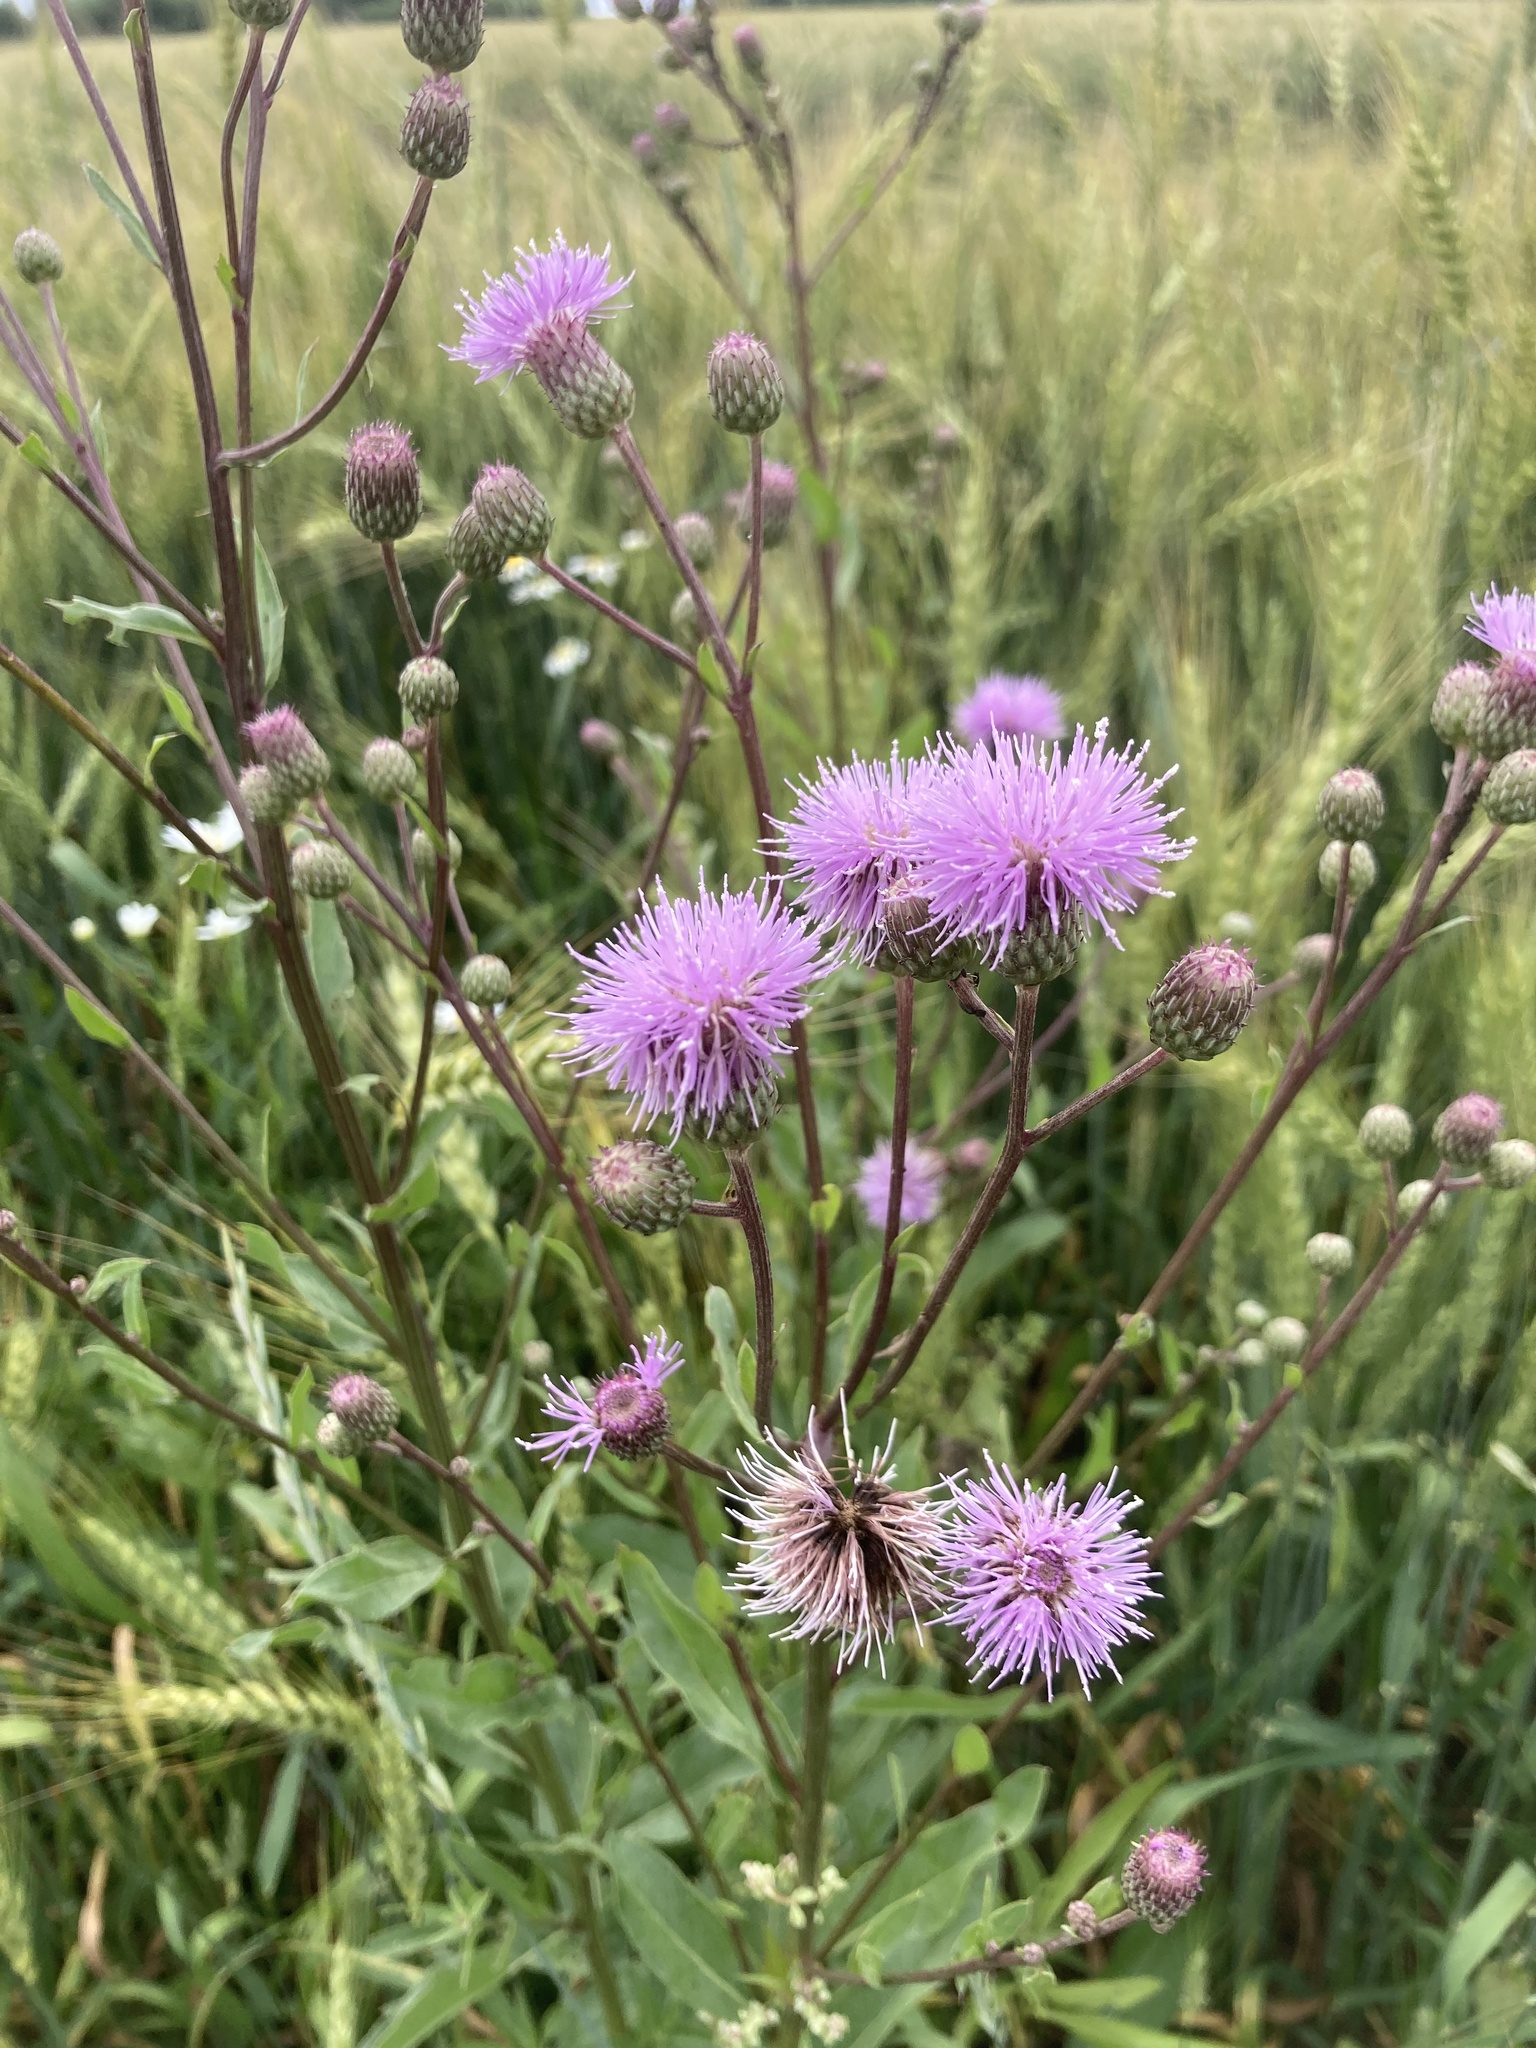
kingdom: Plantae
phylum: Tracheophyta
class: Magnoliopsida
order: Asterales
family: Asteraceae
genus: Cirsium
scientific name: Cirsium arvense
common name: Creeping thistle
